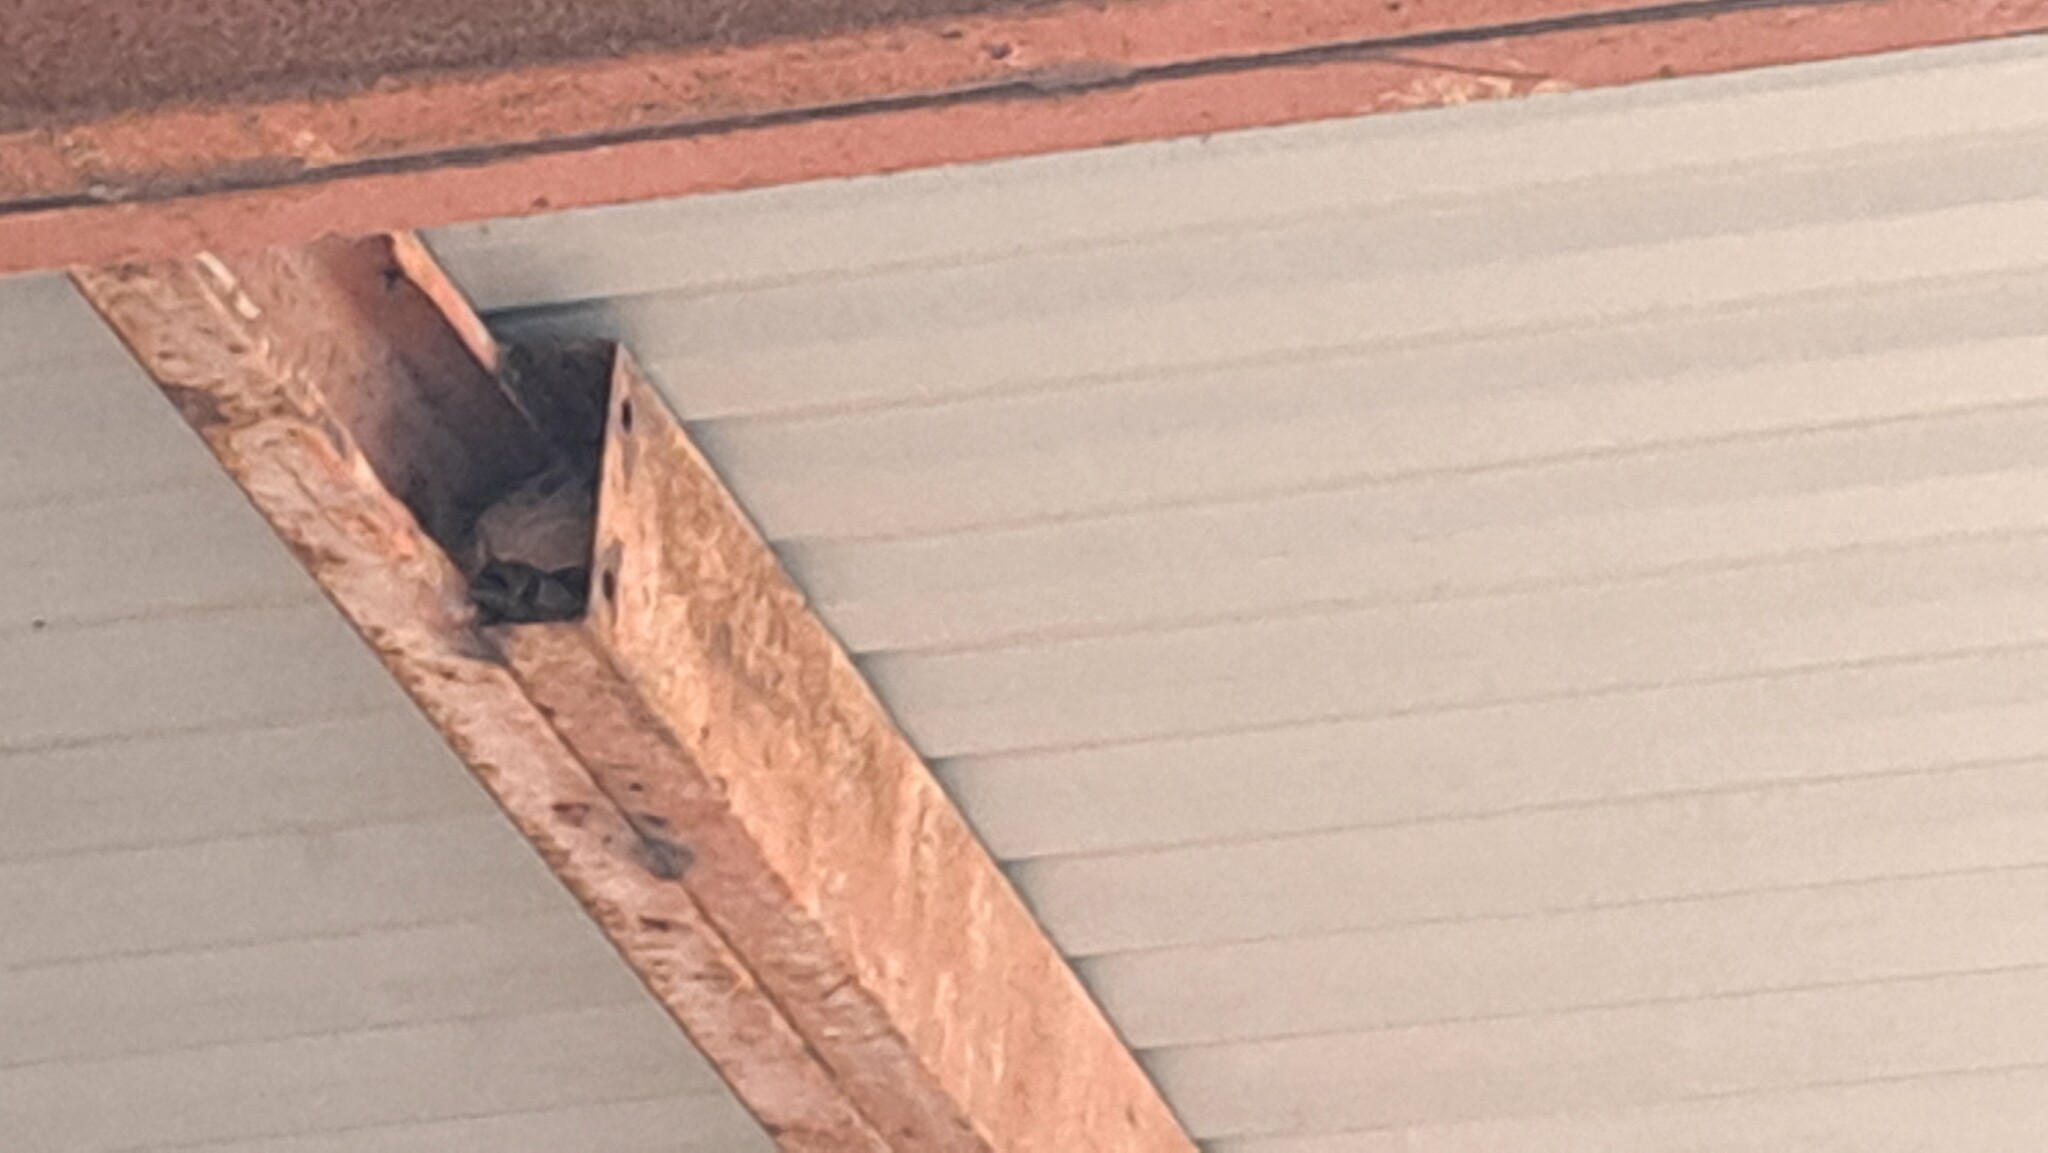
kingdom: Animalia
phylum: Arthropoda
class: Insecta
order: Hymenoptera
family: Vespidae
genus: Vespa
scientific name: Vespa velutina
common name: Asian hornet
